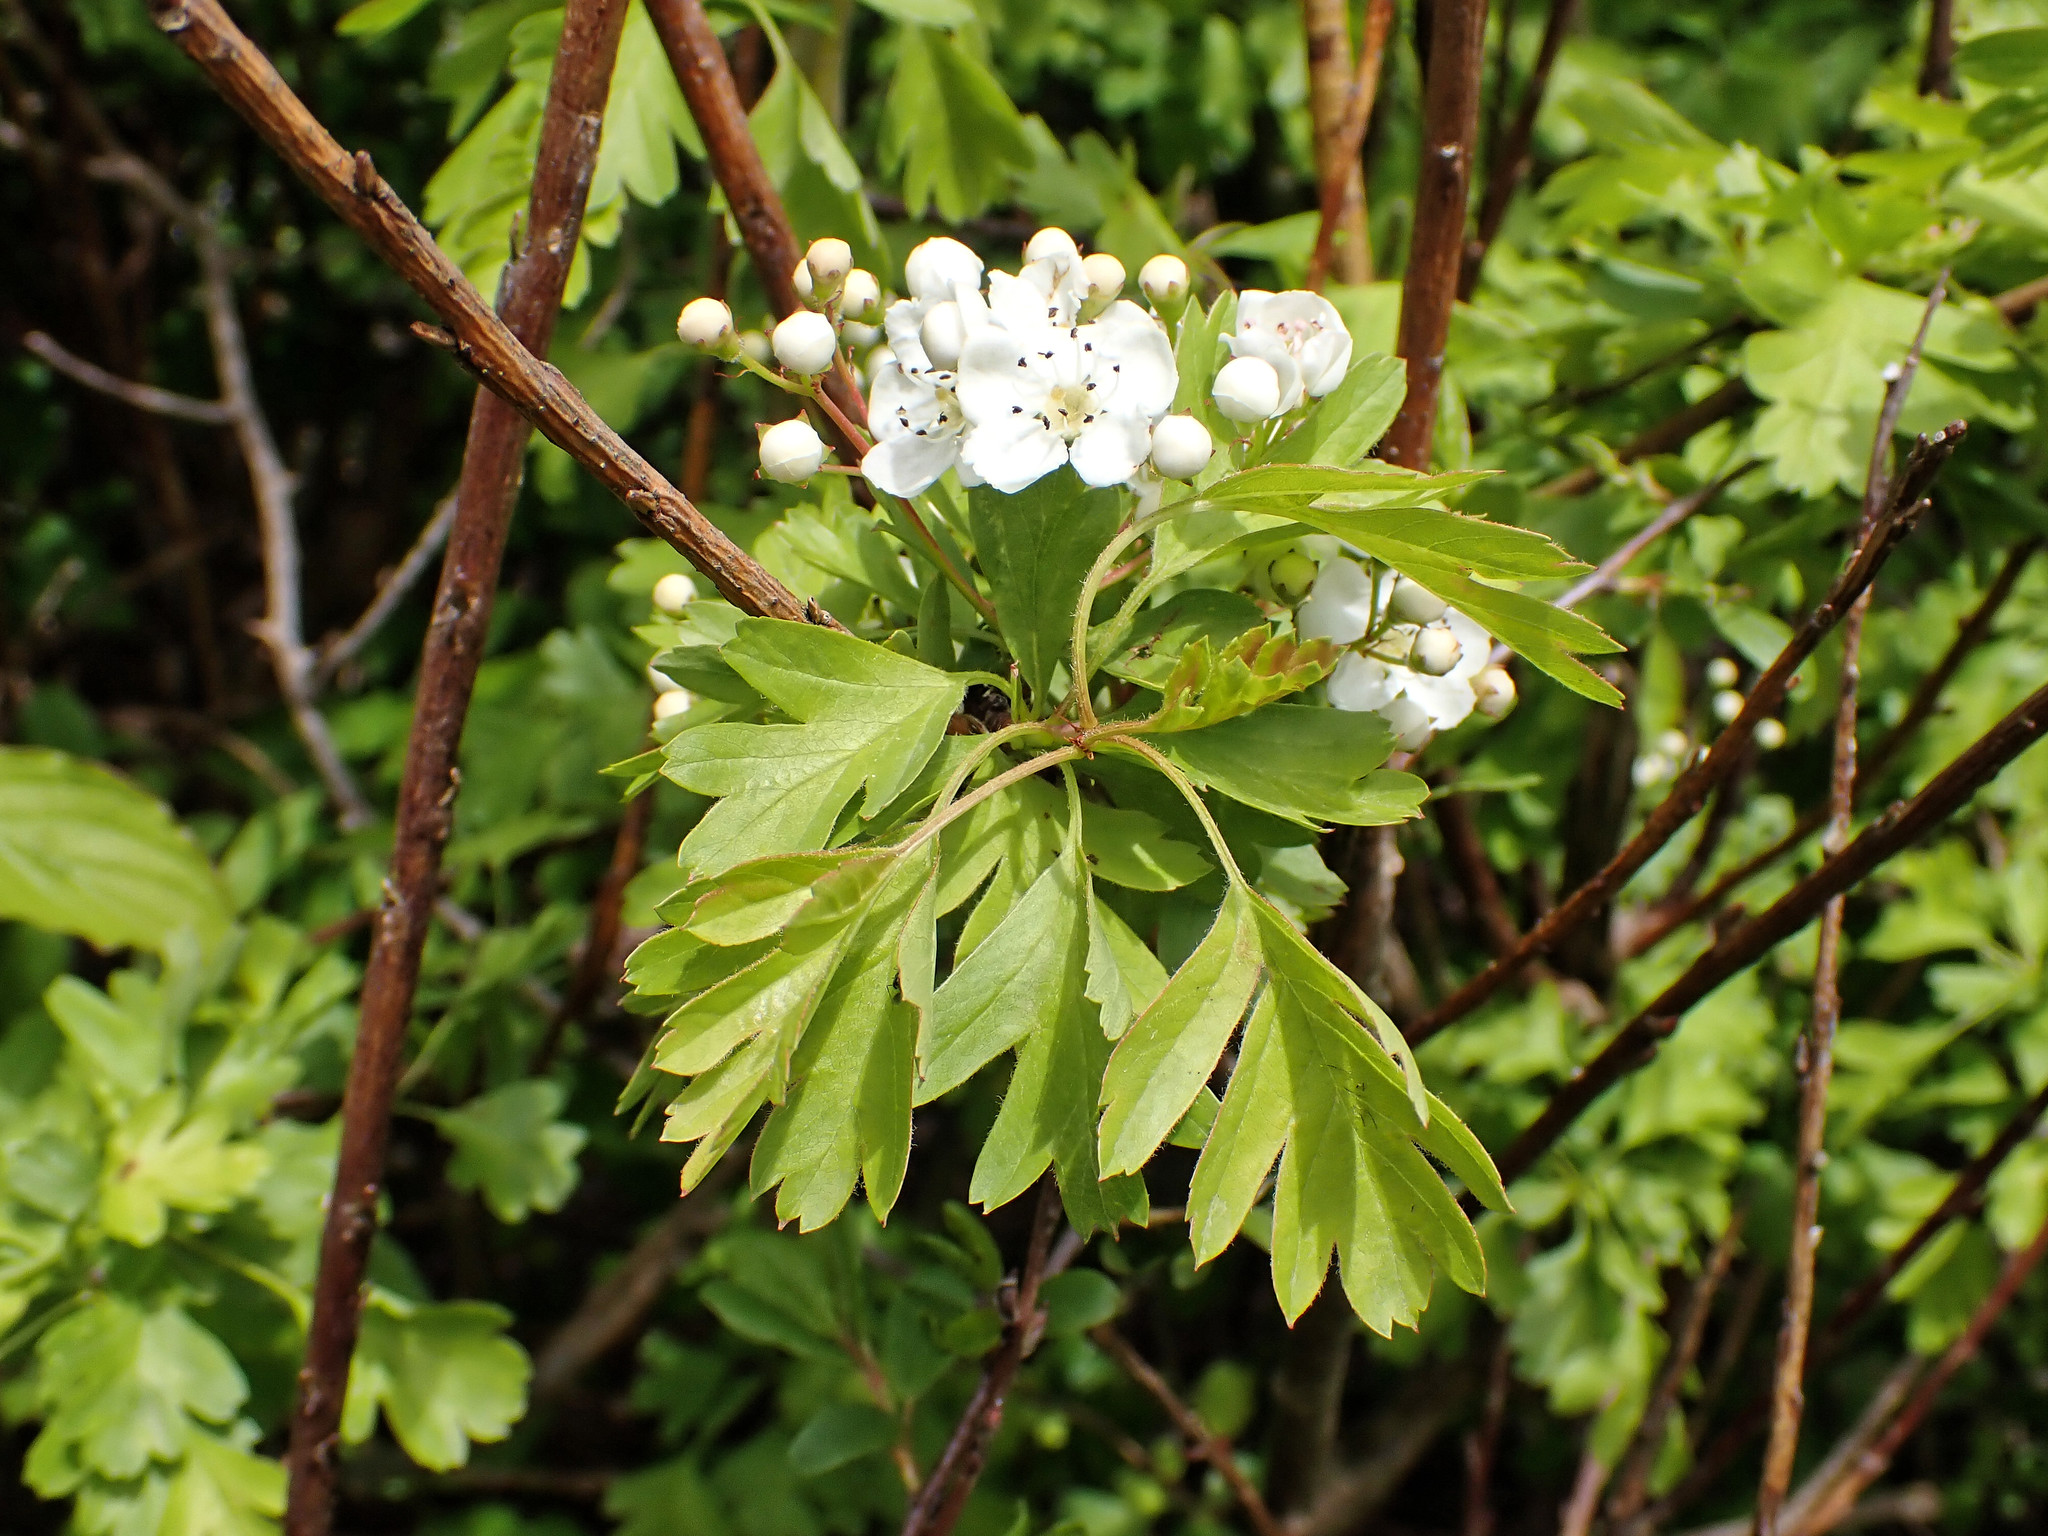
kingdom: Plantae
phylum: Tracheophyta
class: Magnoliopsida
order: Rosales
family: Rosaceae
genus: Crataegus
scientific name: Crataegus monogyna
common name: Hawthorn
